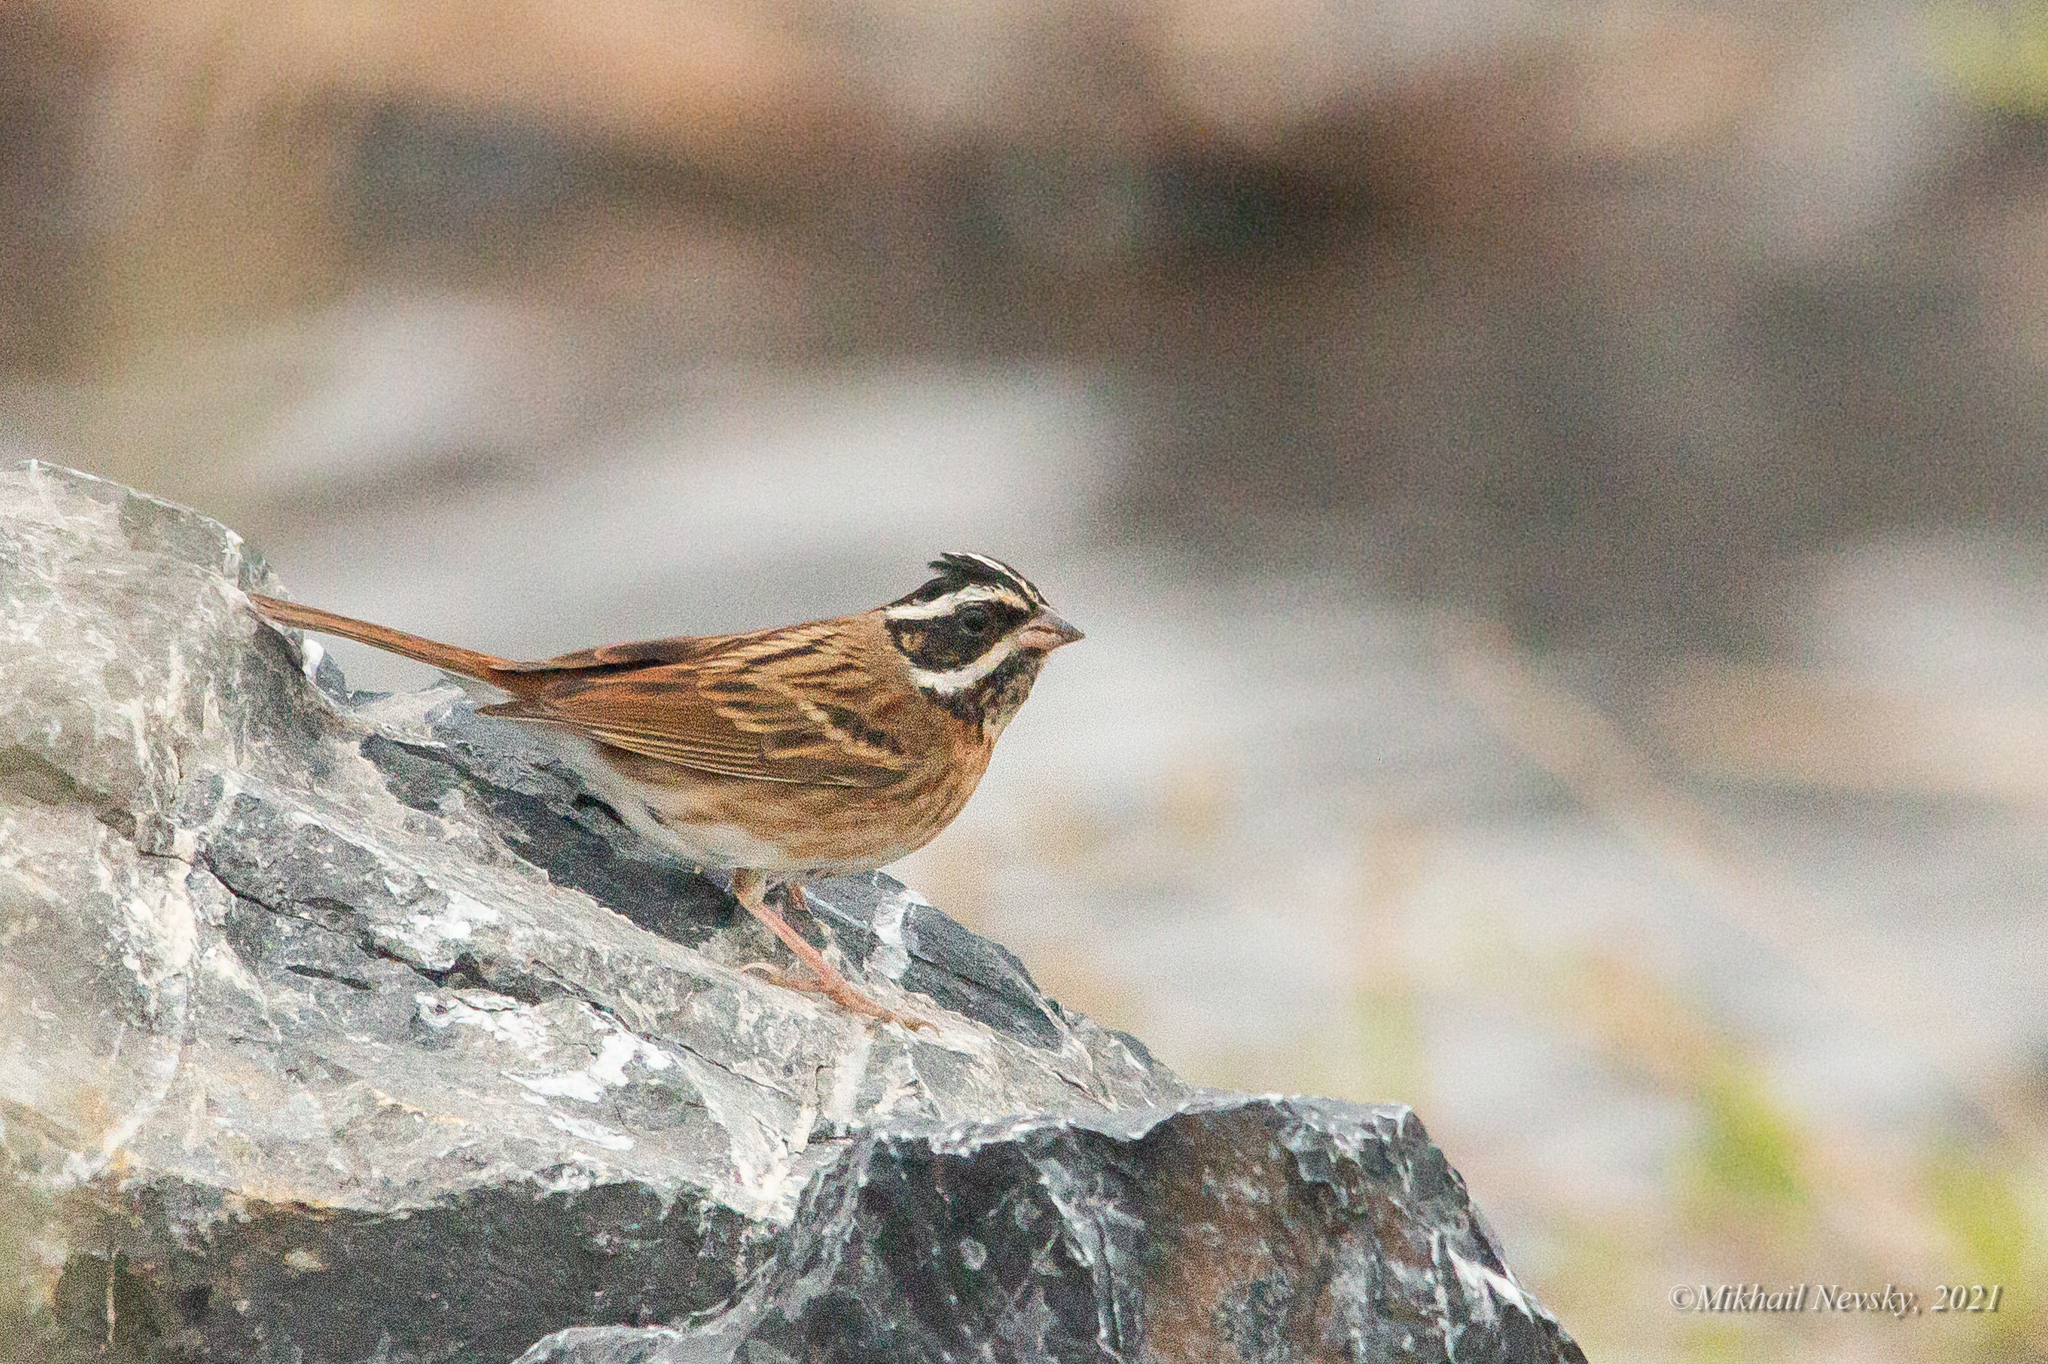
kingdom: Animalia
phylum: Chordata
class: Aves
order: Passeriformes
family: Emberizidae
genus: Emberiza
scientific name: Emberiza tristrami
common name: Tristram's bunting
